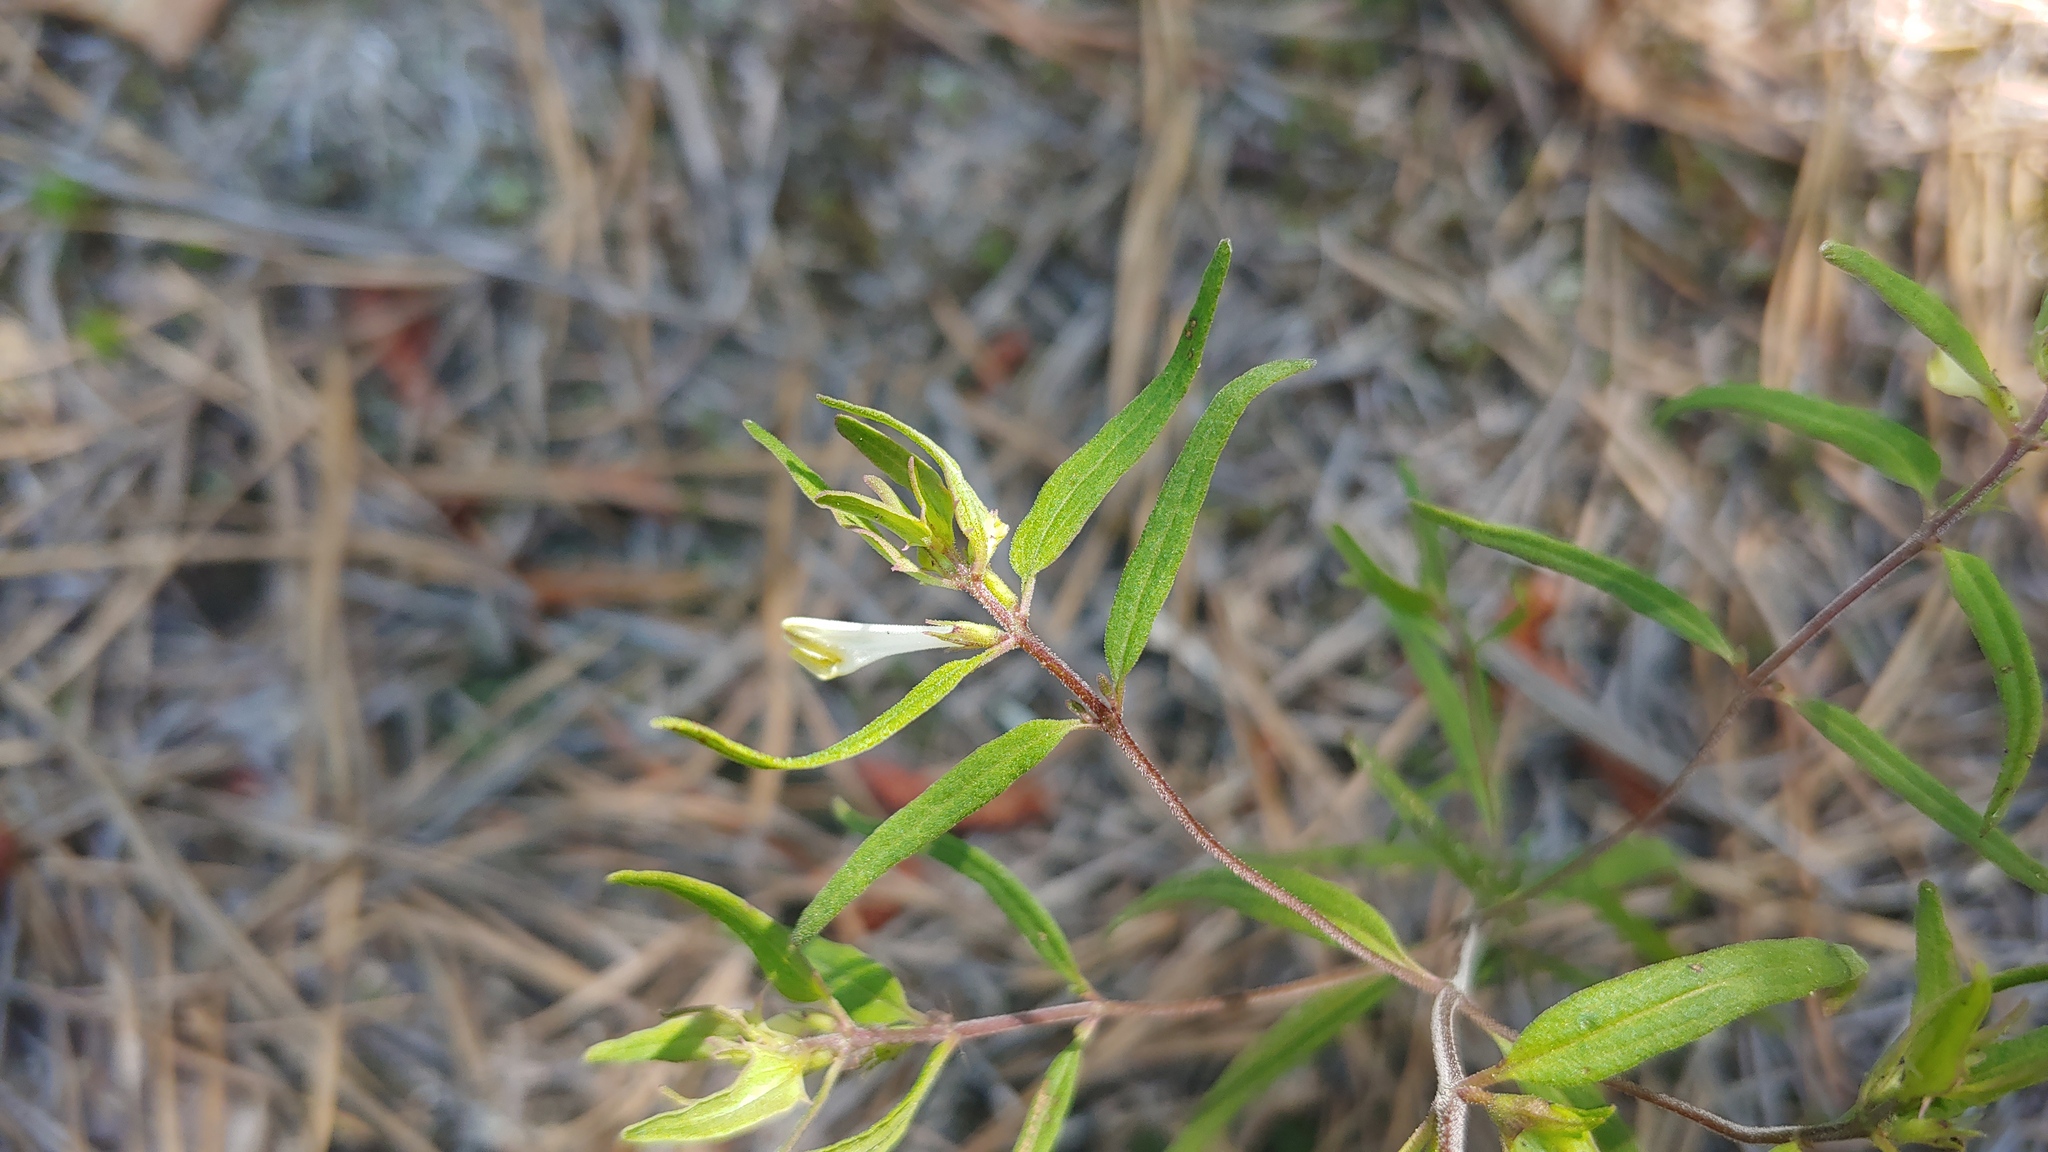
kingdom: Plantae
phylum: Tracheophyta
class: Magnoliopsida
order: Lamiales
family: Orobanchaceae
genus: Melampyrum
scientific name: Melampyrum lineare
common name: American cow-wheat
